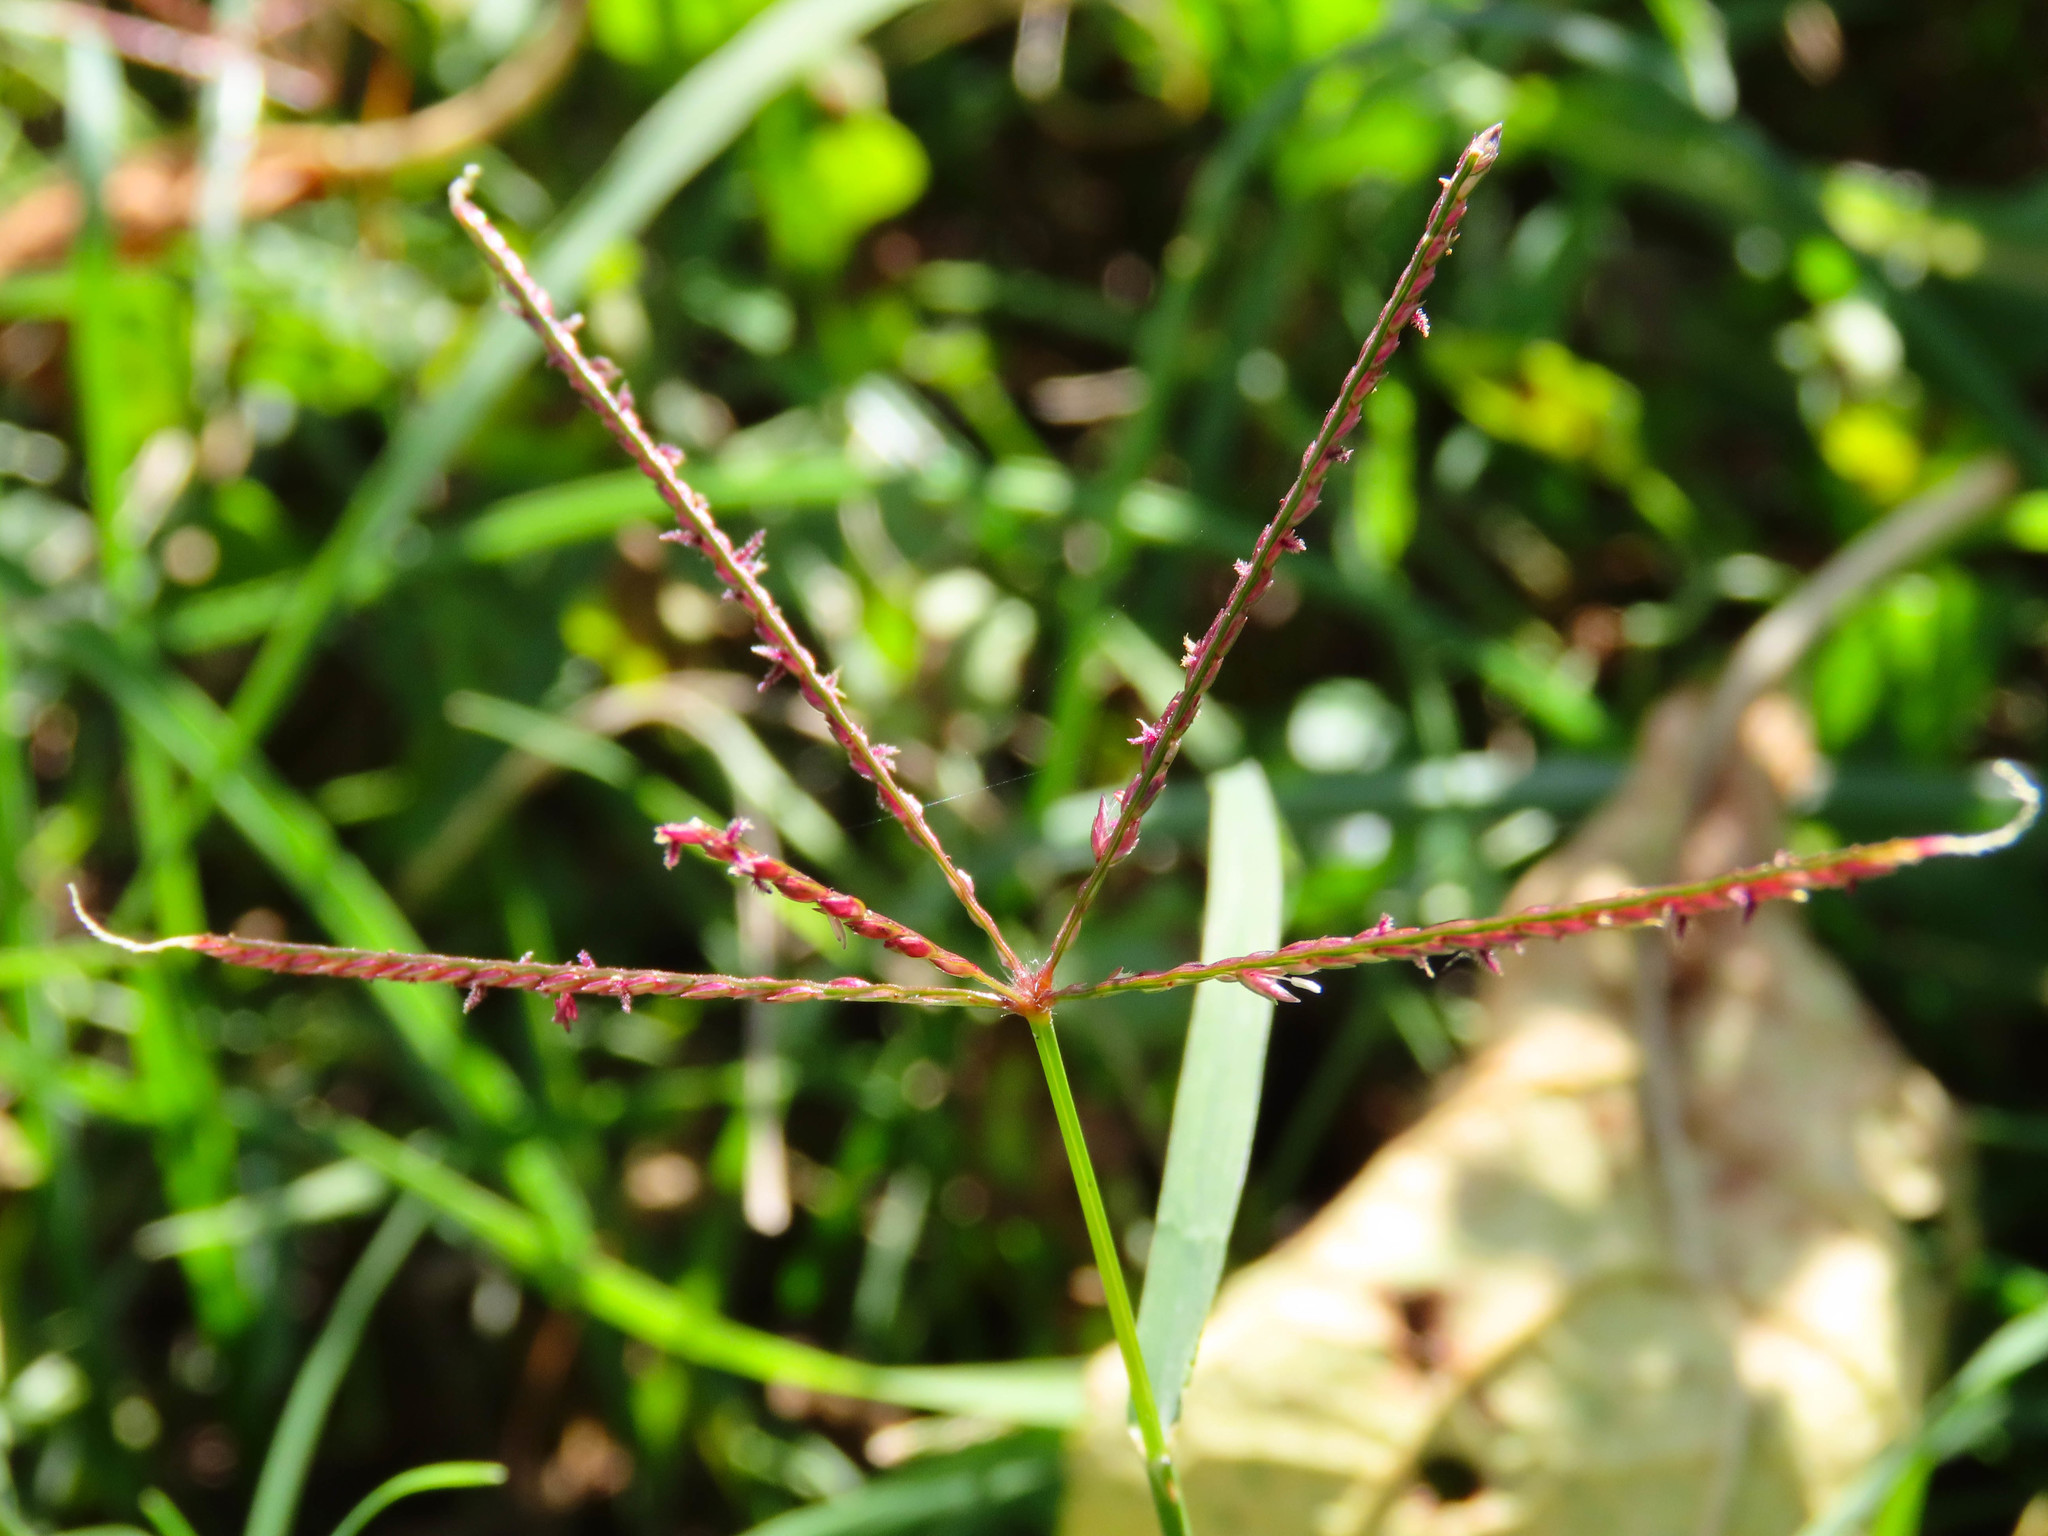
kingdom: Plantae
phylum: Tracheophyta
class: Liliopsida
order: Poales
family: Poaceae
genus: Cynodon
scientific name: Cynodon dactylon
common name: Bermuda grass
